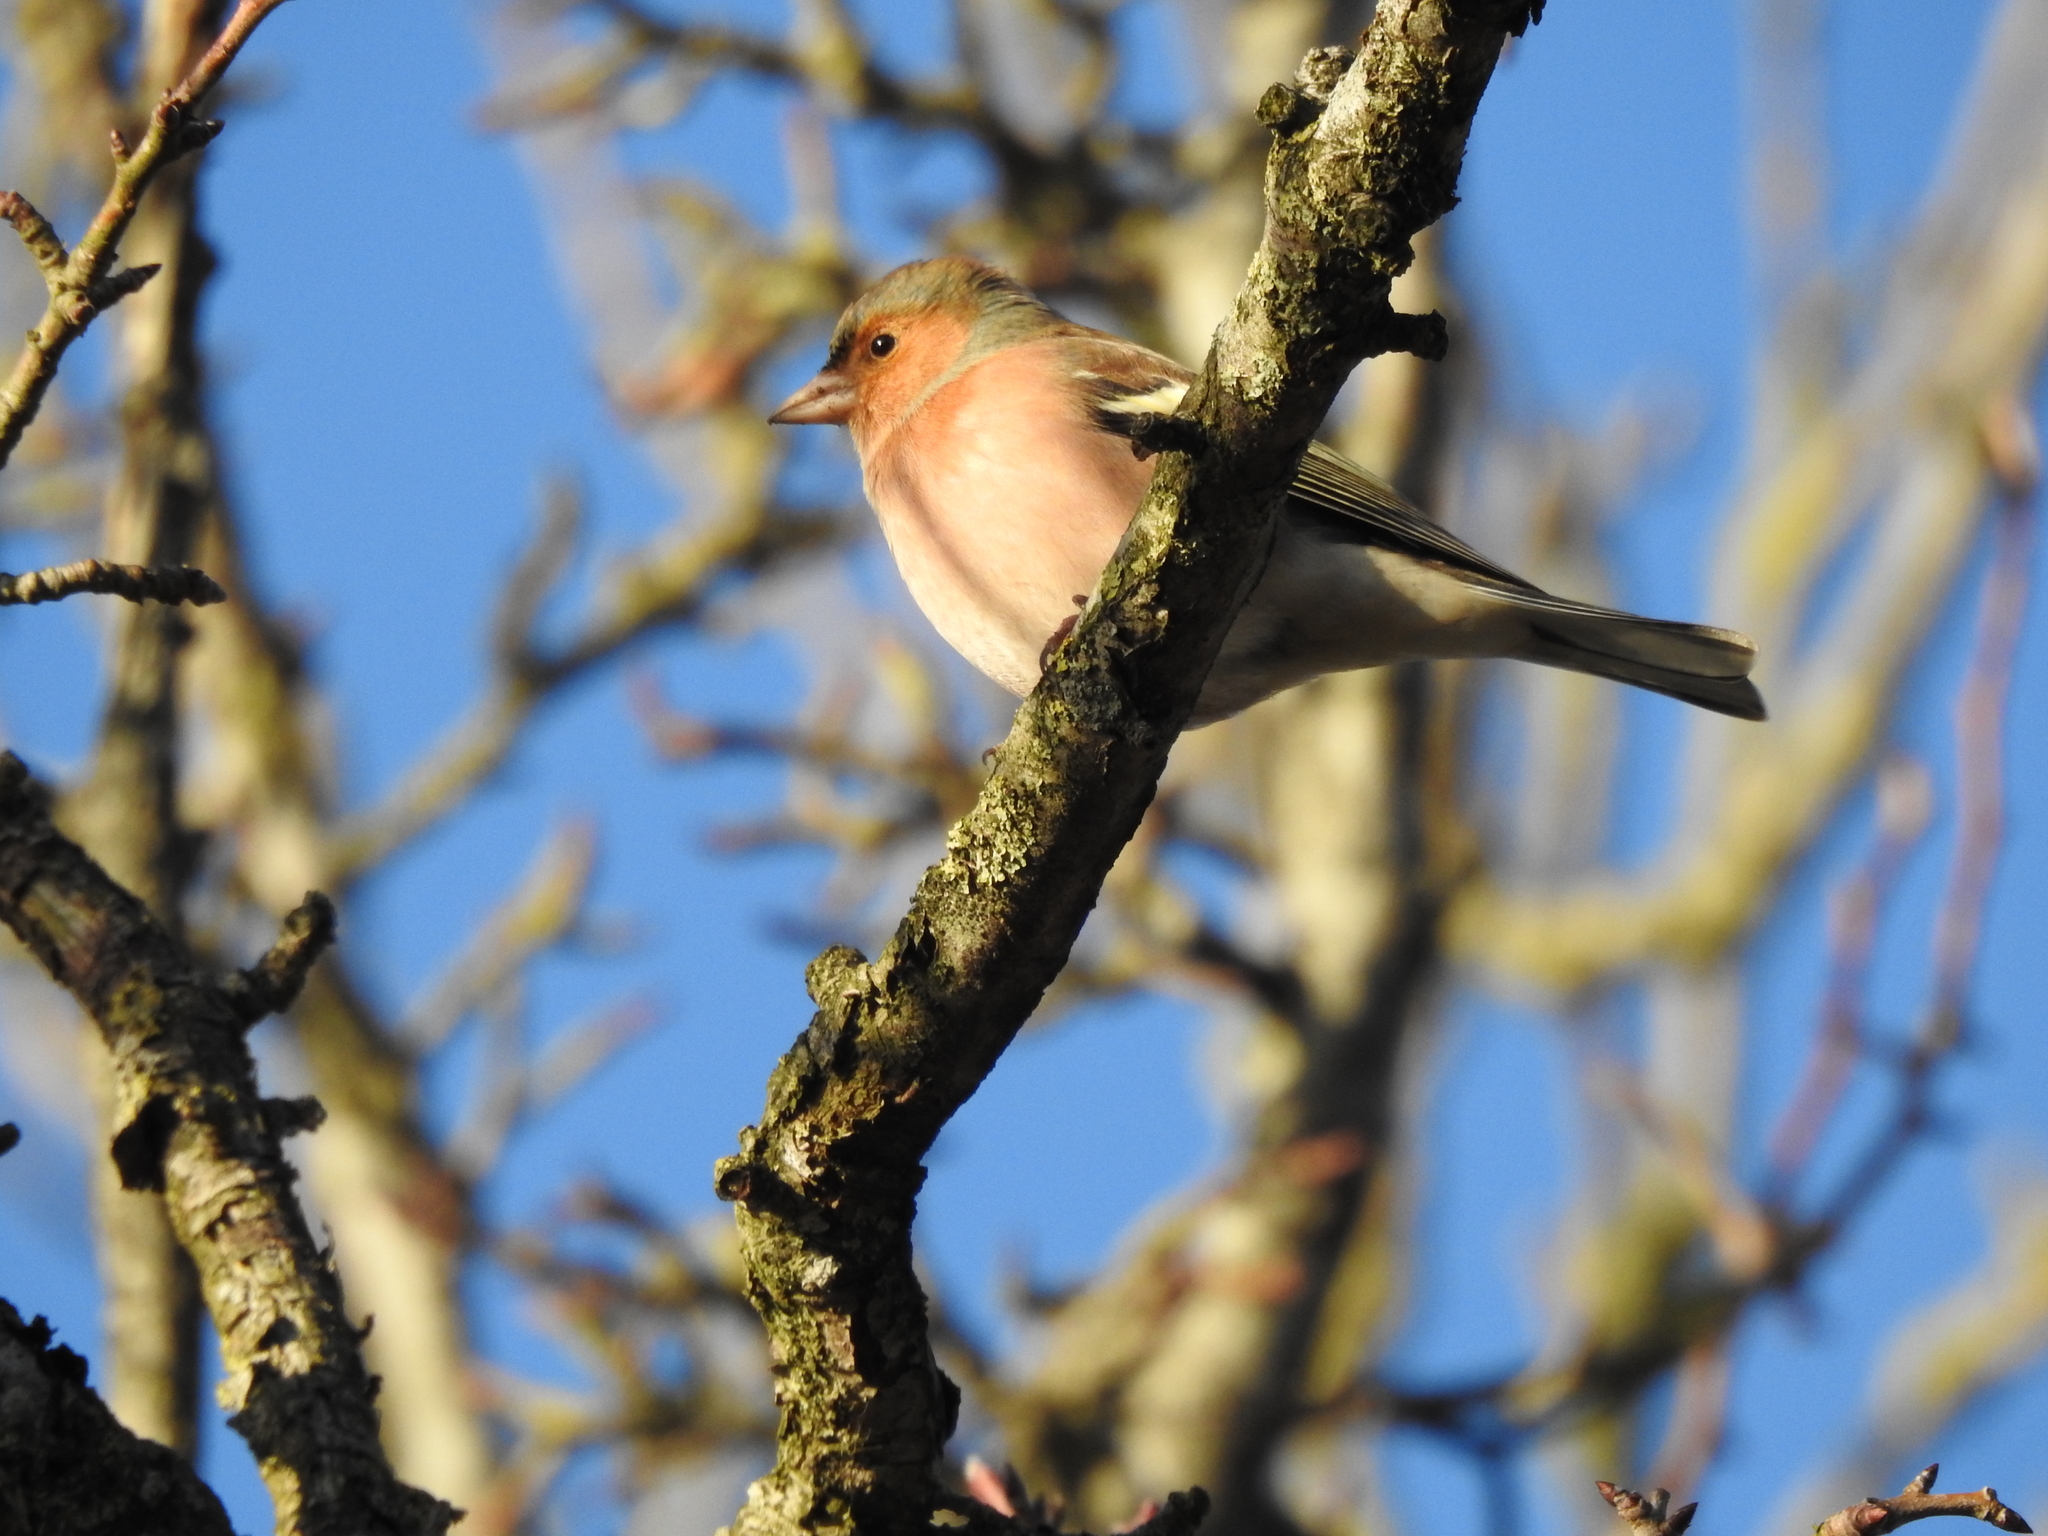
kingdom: Animalia
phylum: Chordata
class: Aves
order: Passeriformes
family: Fringillidae
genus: Fringilla
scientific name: Fringilla coelebs
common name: Common chaffinch
